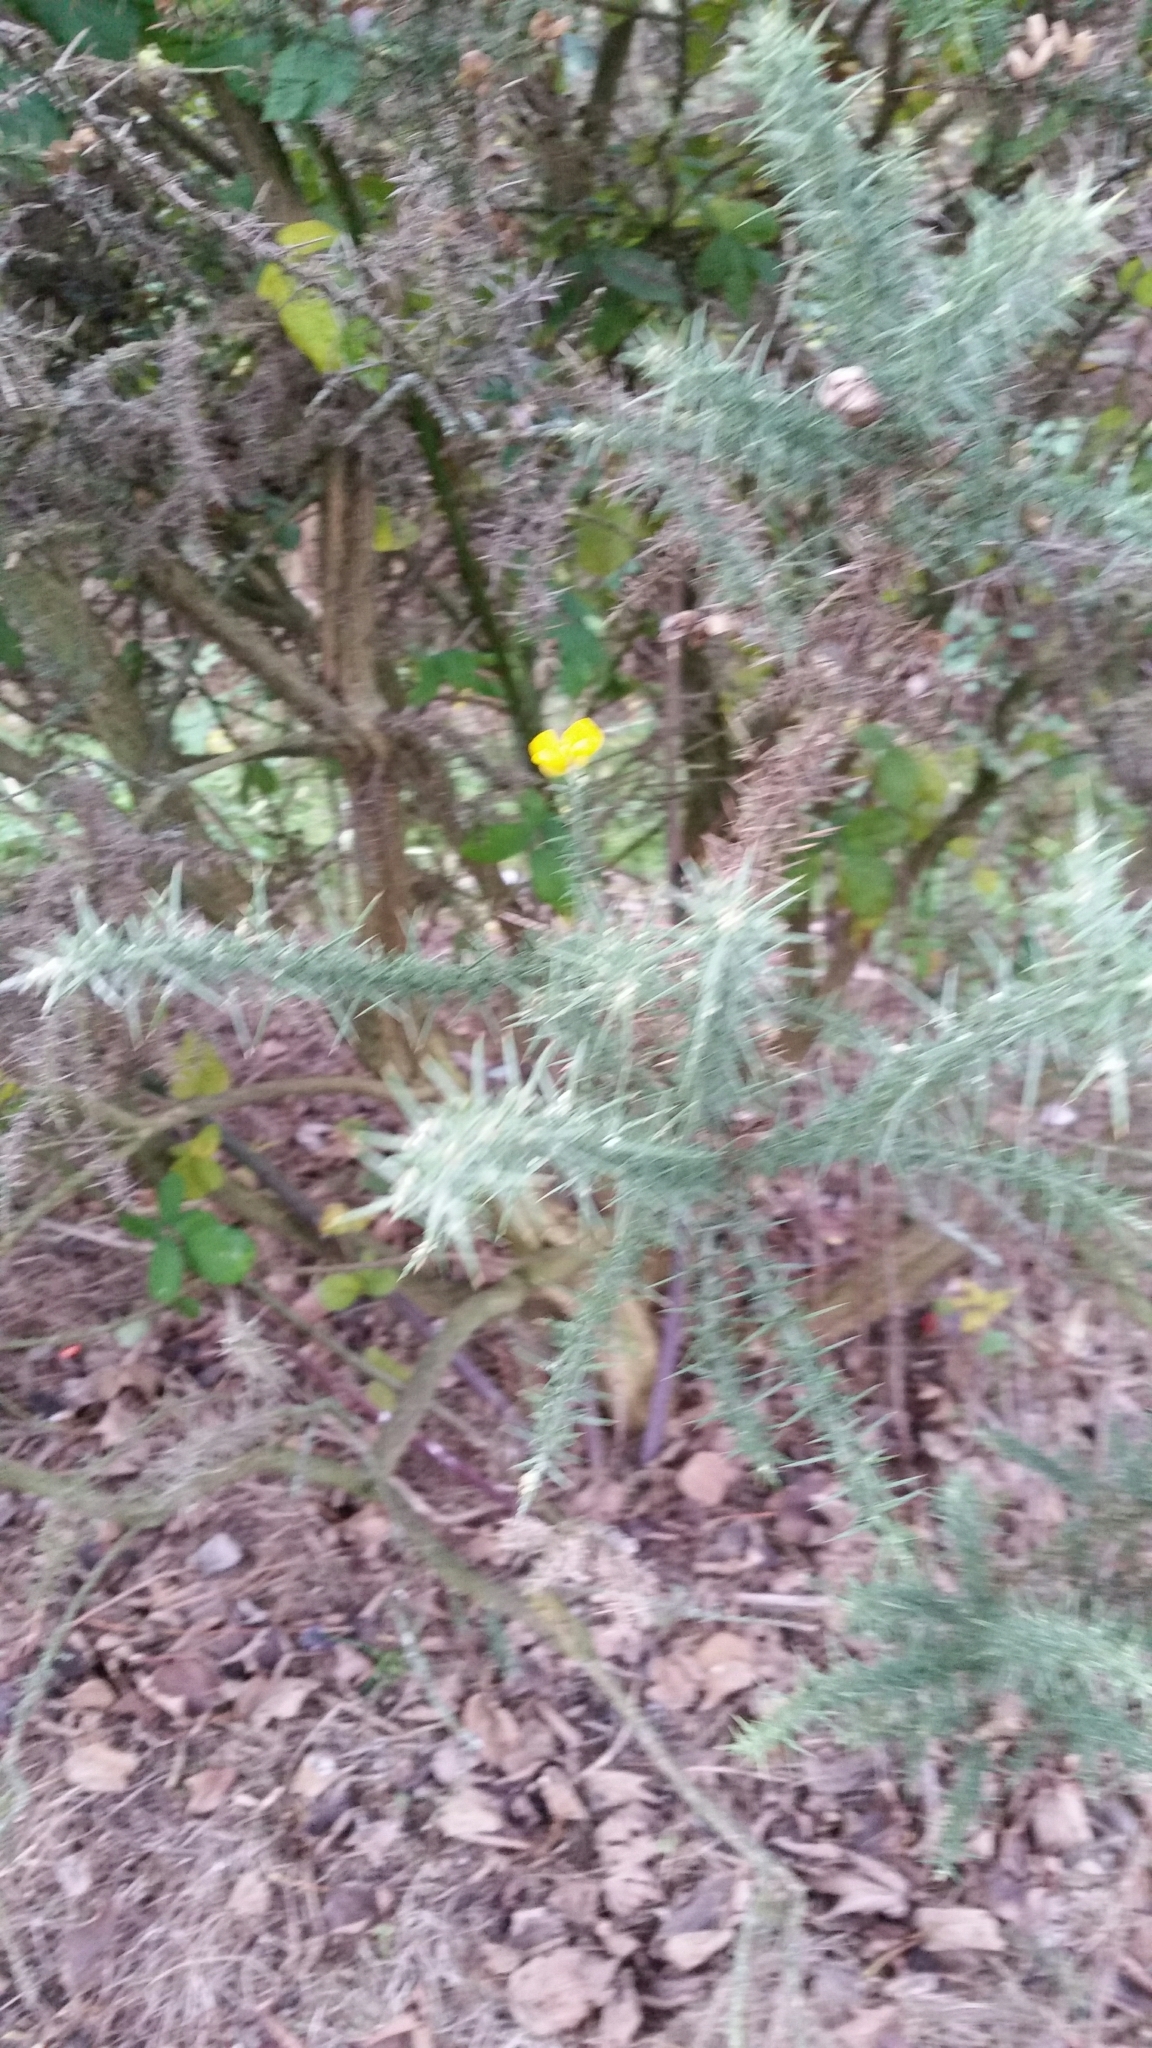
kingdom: Plantae
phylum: Tracheophyta
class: Magnoliopsida
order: Fabales
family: Fabaceae
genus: Ulex
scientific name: Ulex europaeus
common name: Common gorse
